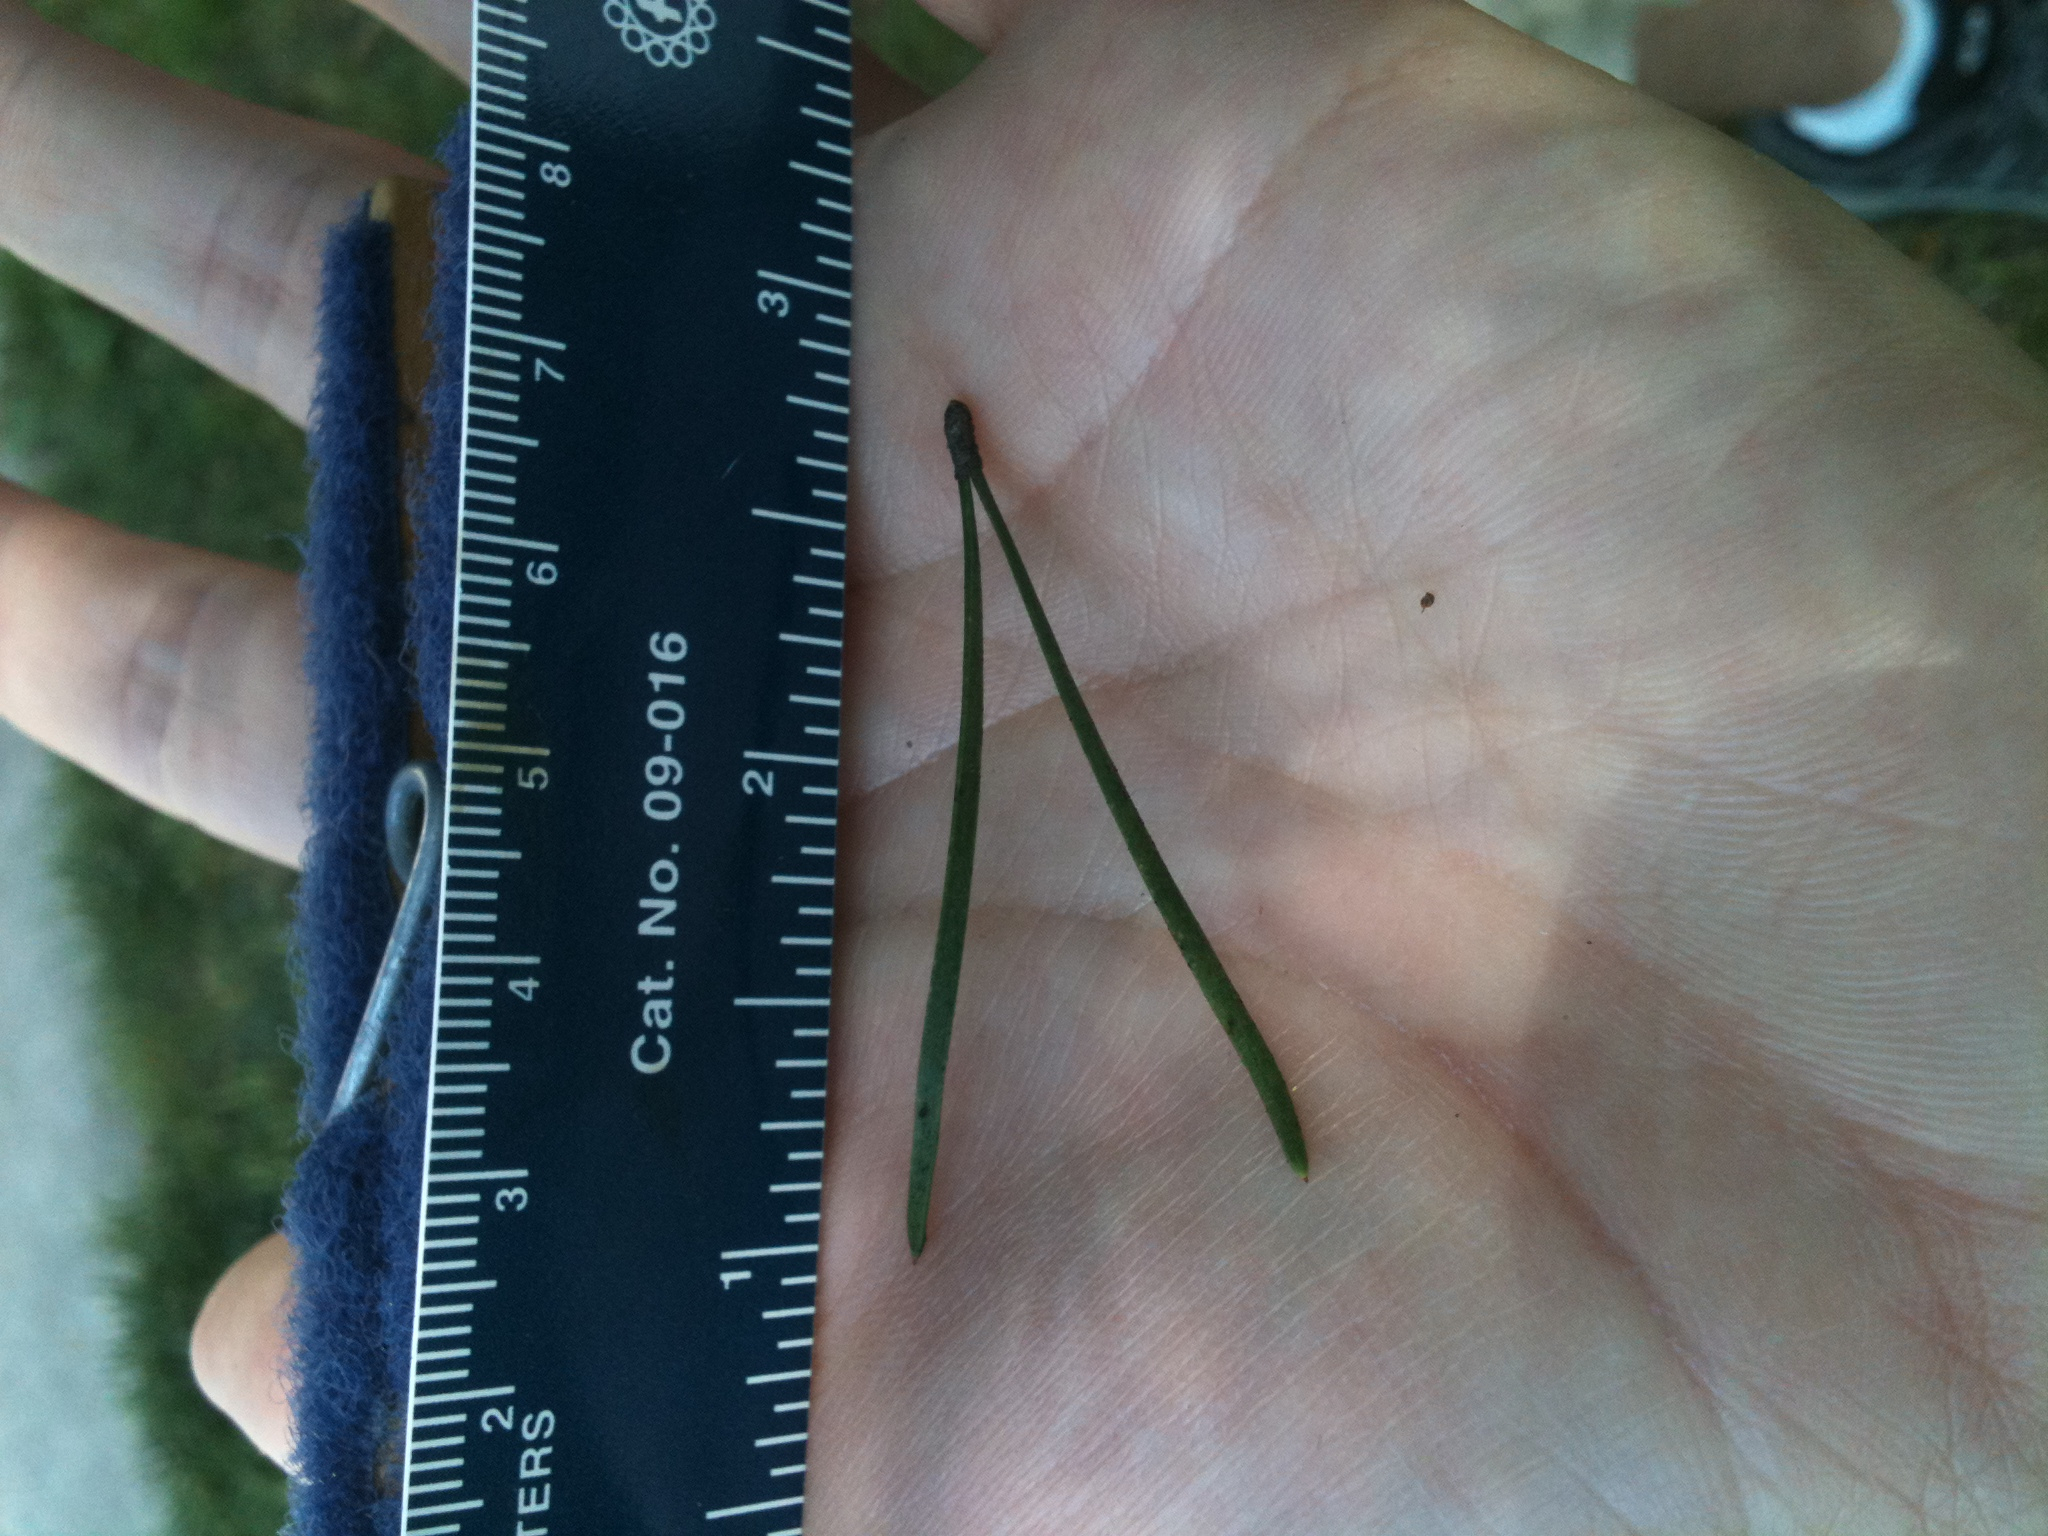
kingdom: Plantae
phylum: Tracheophyta
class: Pinopsida
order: Pinales
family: Pinaceae
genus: Pinus
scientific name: Pinus virginiana
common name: Scrub pine
